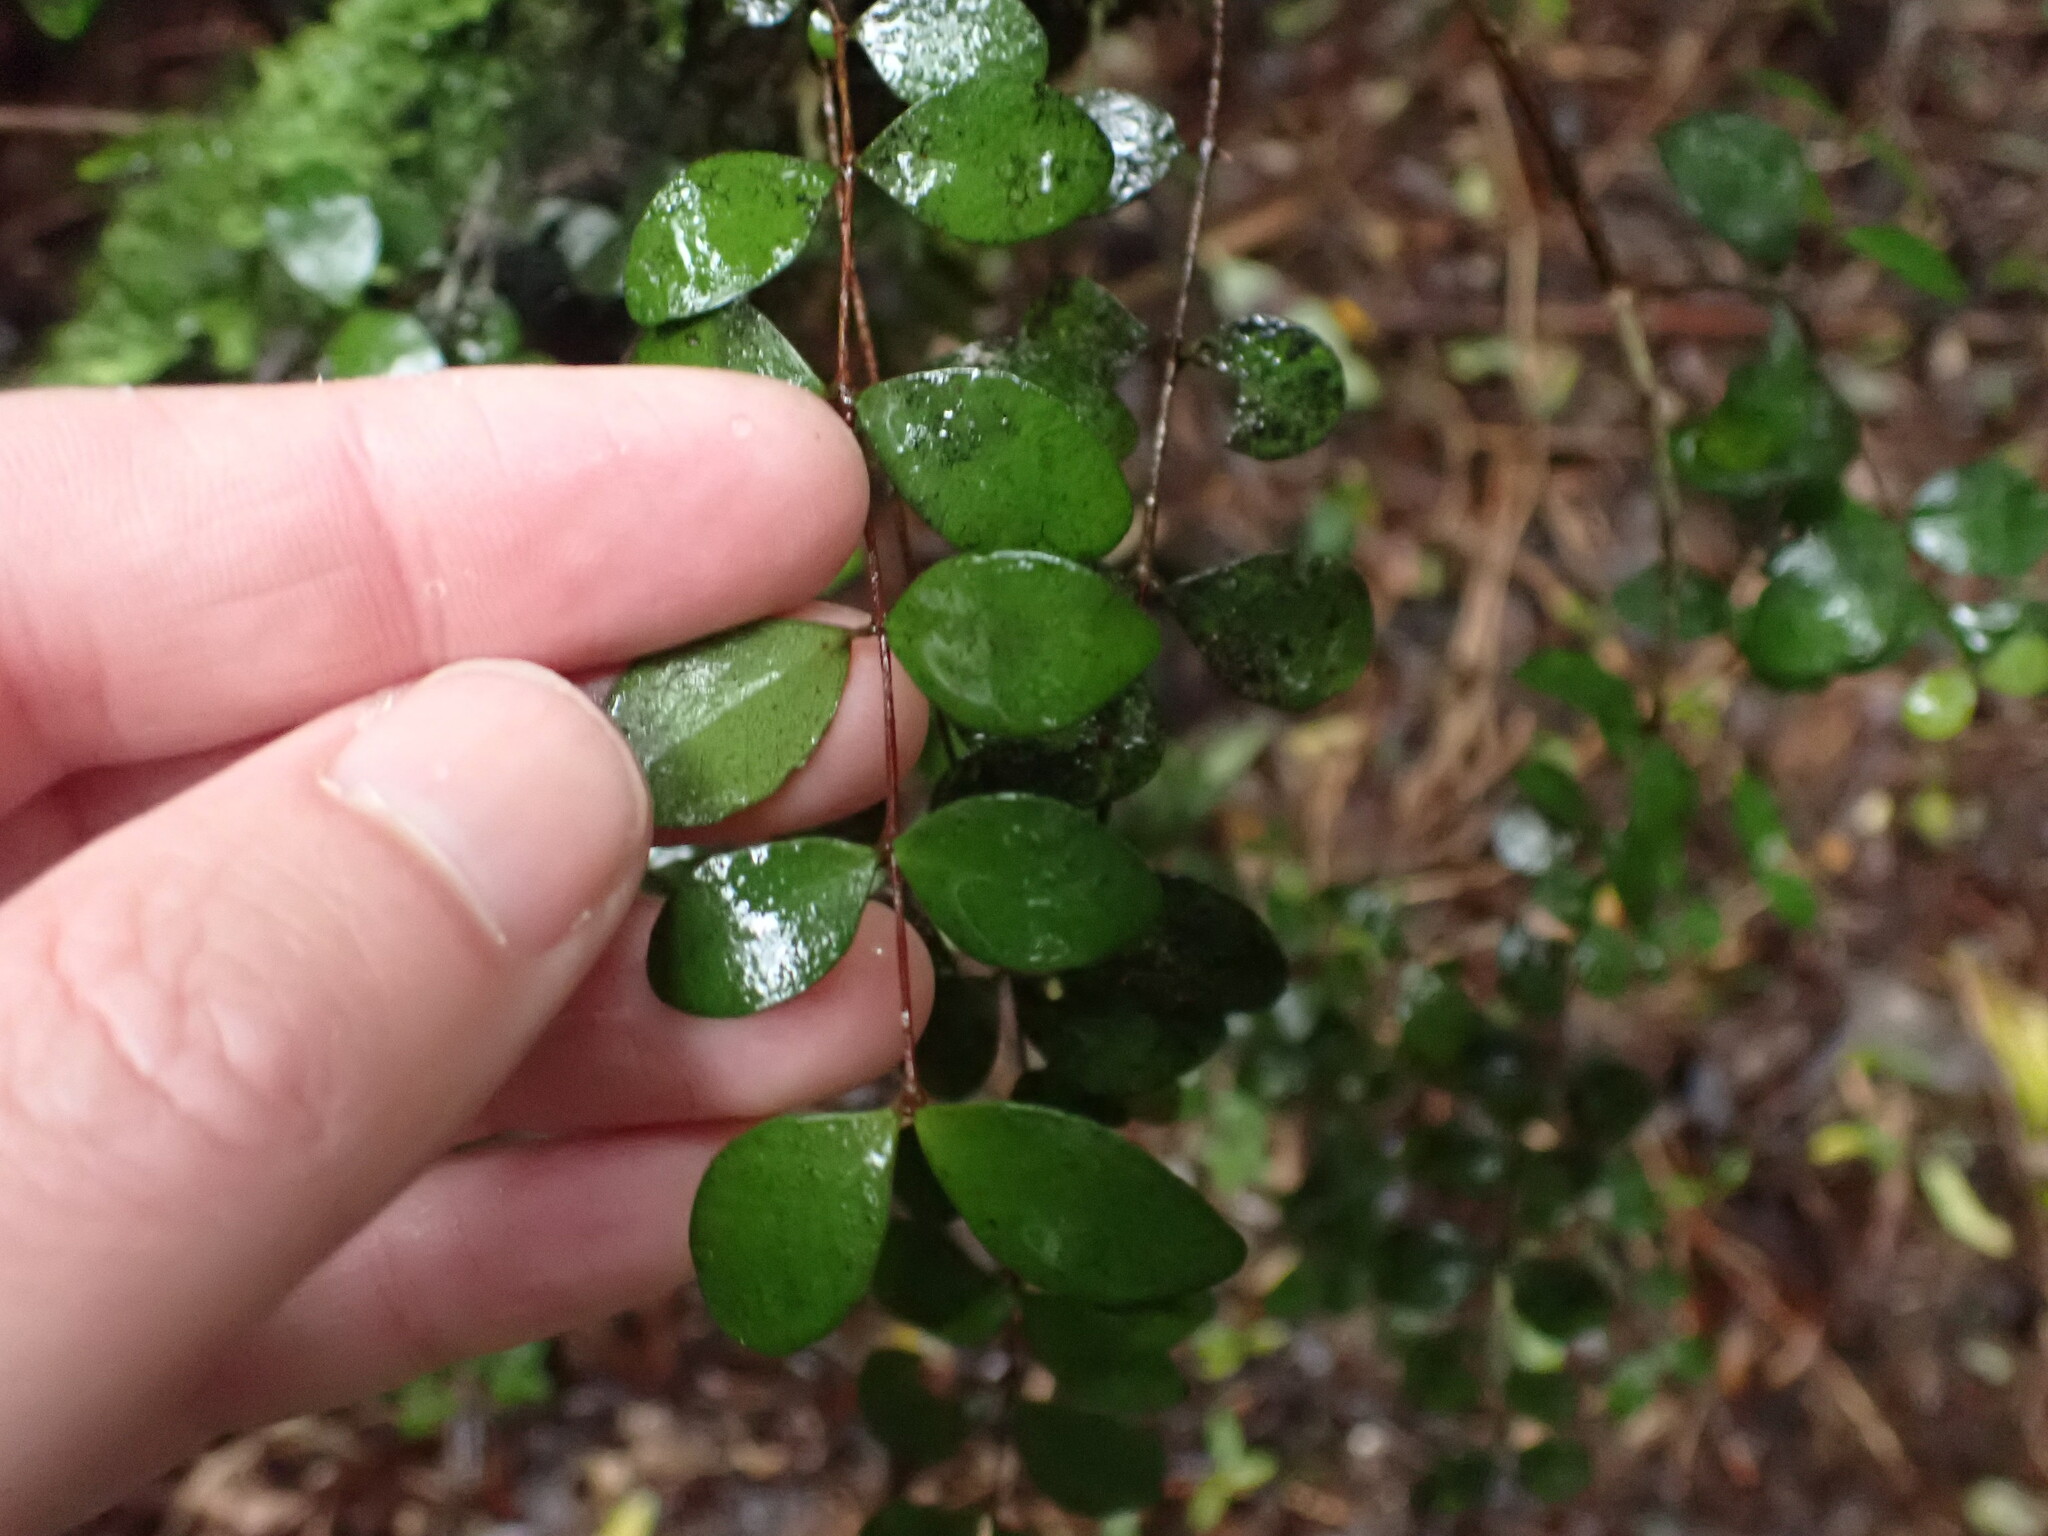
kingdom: Plantae
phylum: Tracheophyta
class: Magnoliopsida
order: Myrtales
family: Myrtaceae
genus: Metrosideros
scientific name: Metrosideros fulgens
